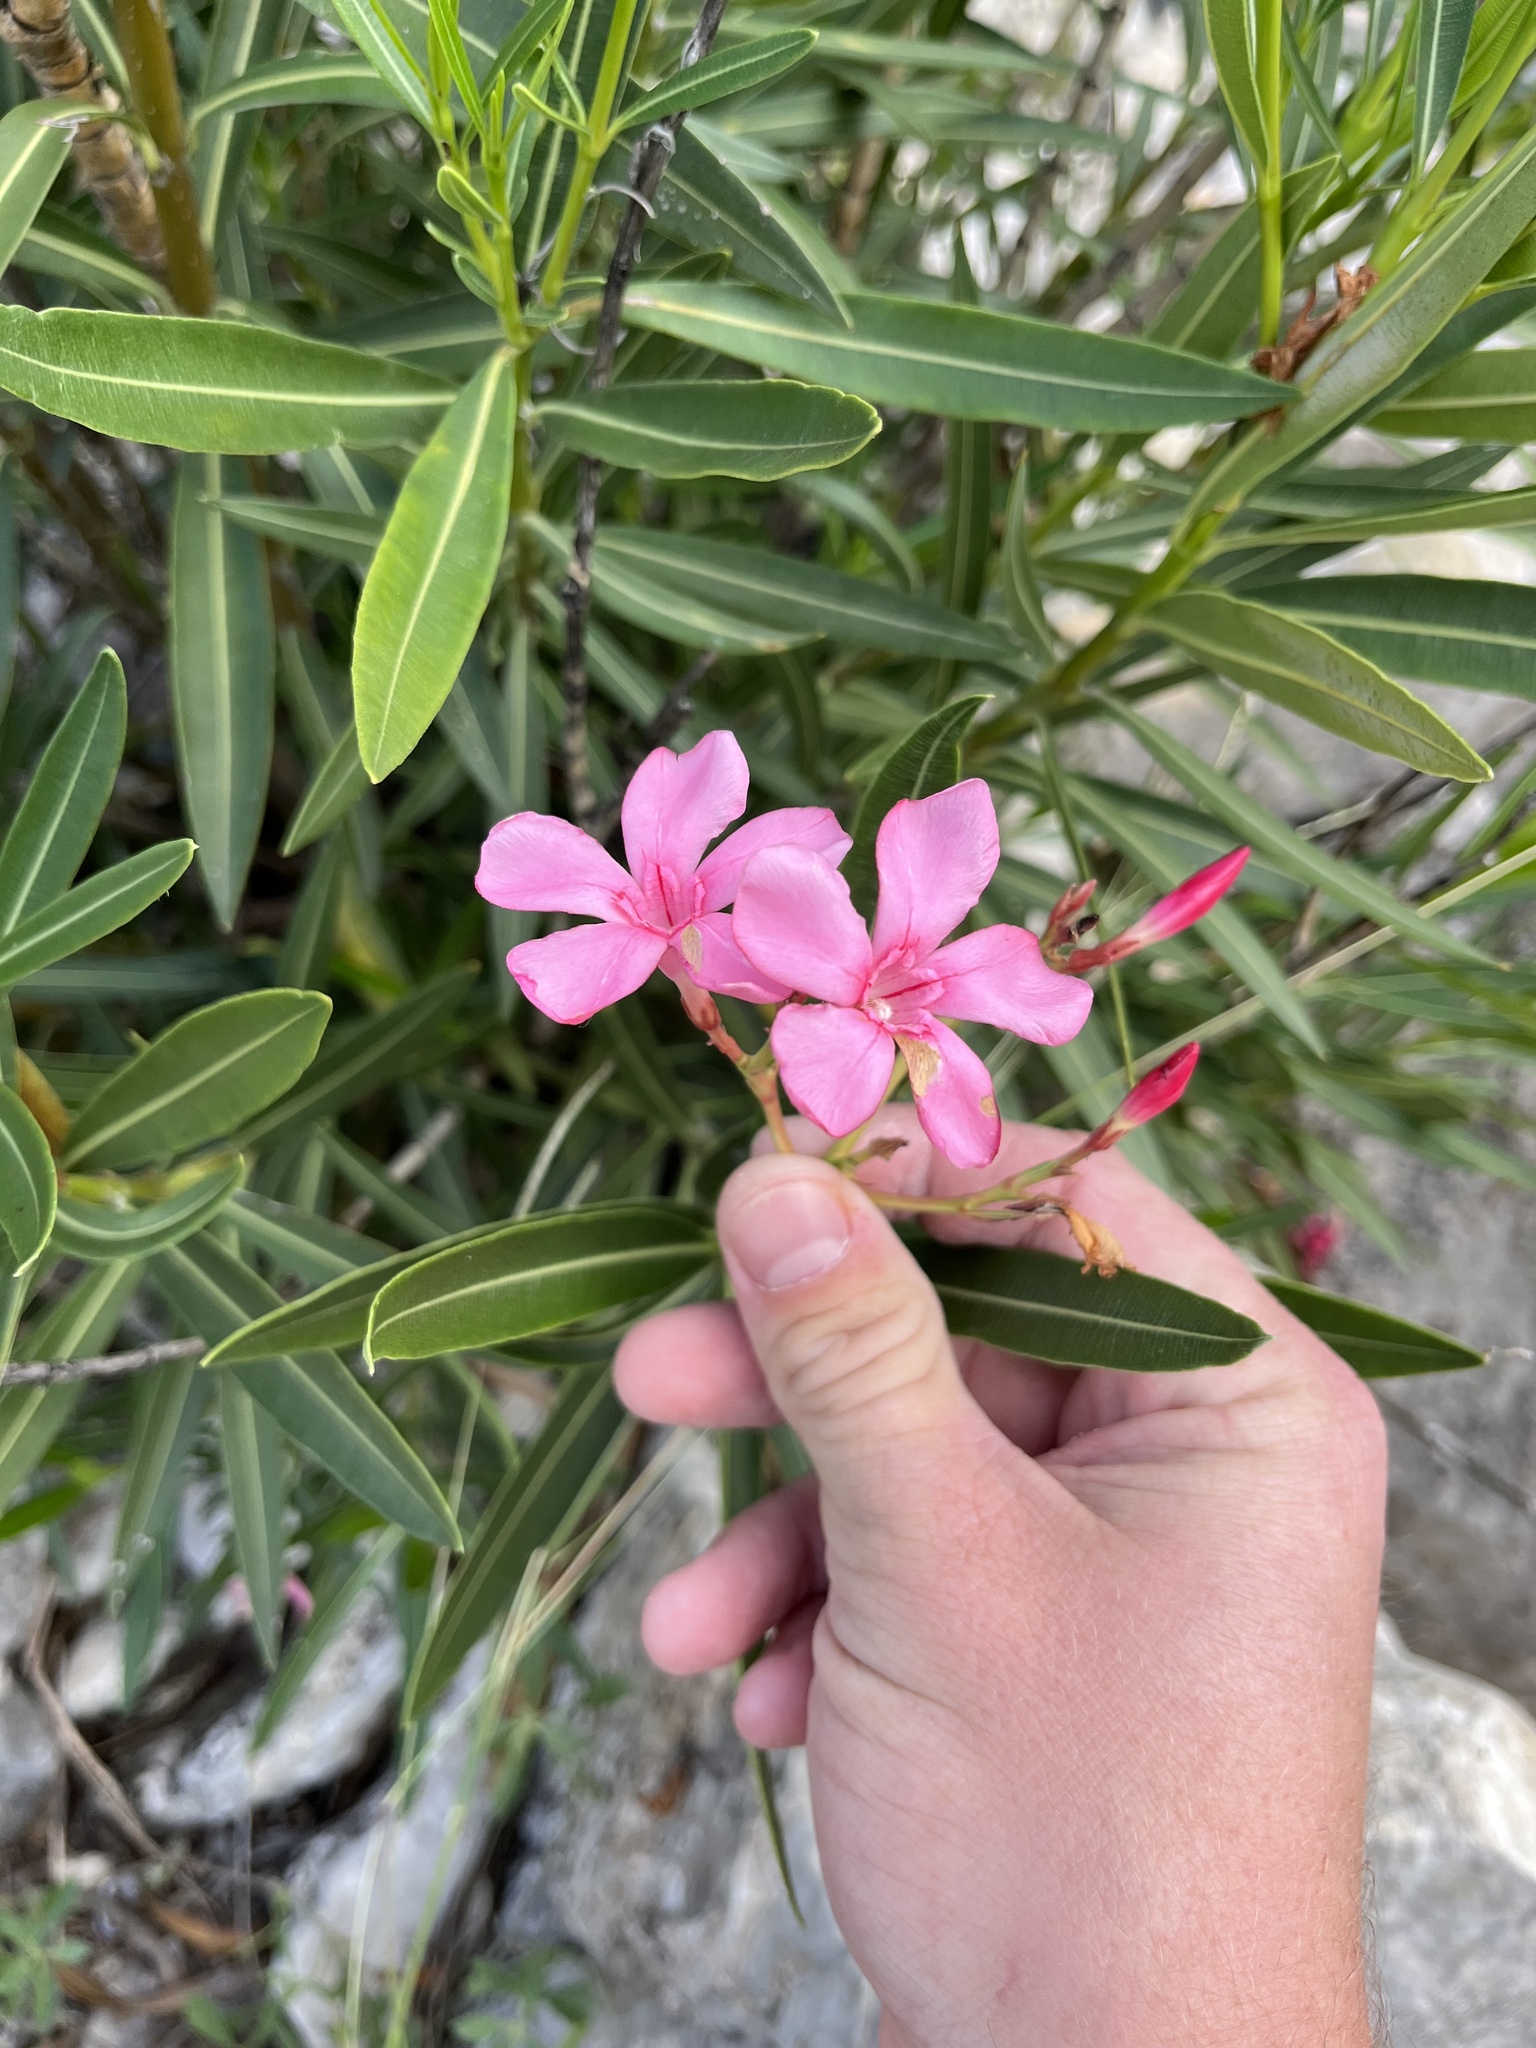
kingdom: Plantae
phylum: Tracheophyta
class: Magnoliopsida
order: Gentianales
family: Apocynaceae
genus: Nerium
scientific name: Nerium oleander
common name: Oleander
